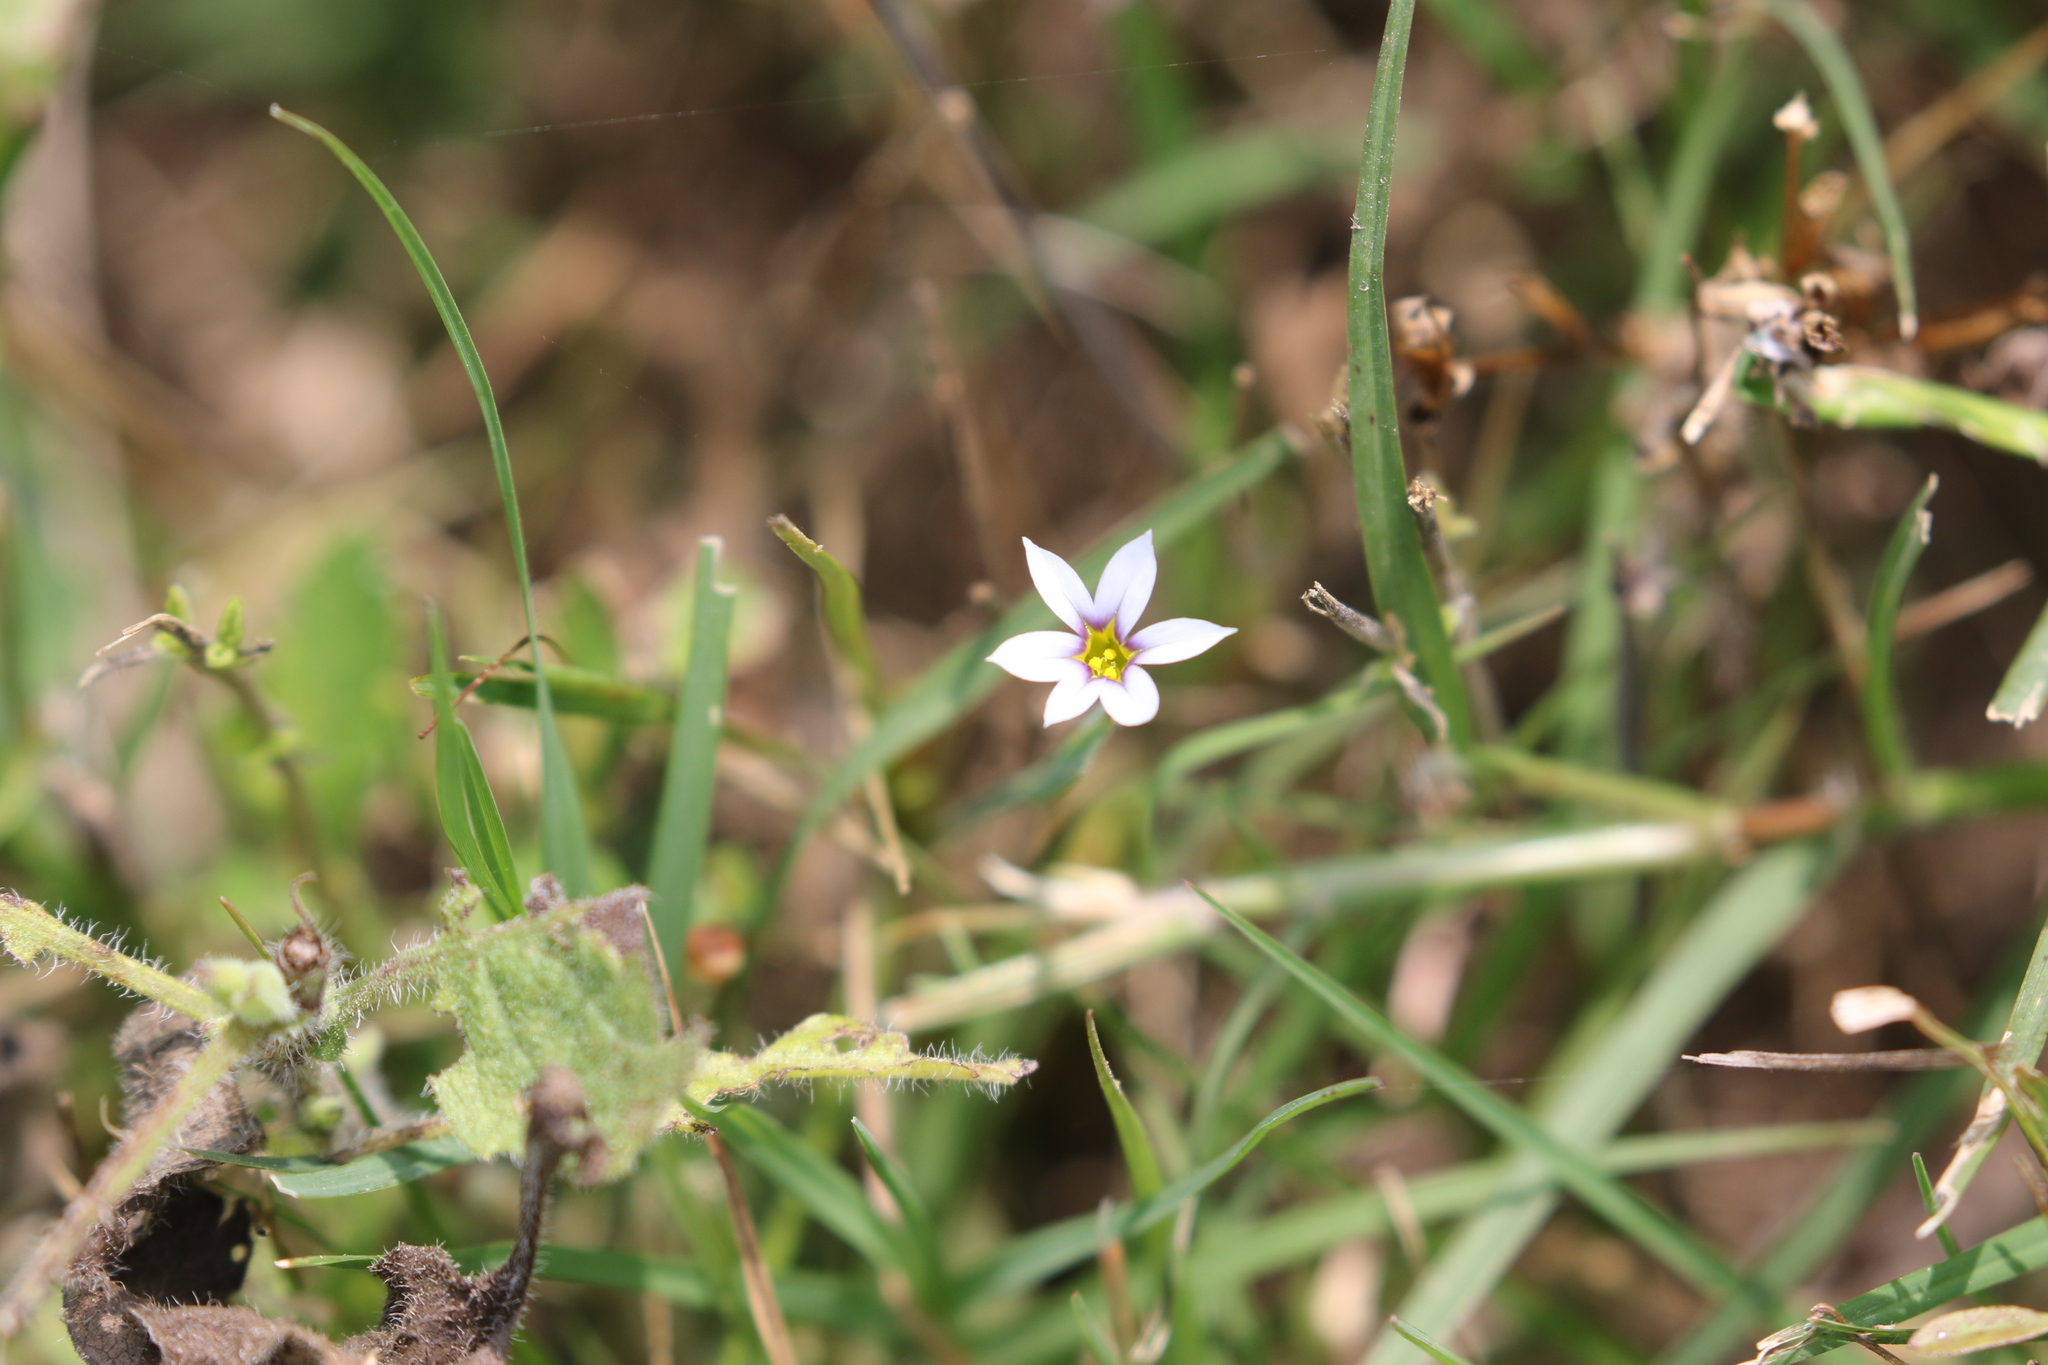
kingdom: Plantae
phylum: Tracheophyta
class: Liliopsida
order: Asparagales
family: Iridaceae
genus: Sisyrinchium
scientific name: Sisyrinchium micranthum
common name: Bermuda pigroot
